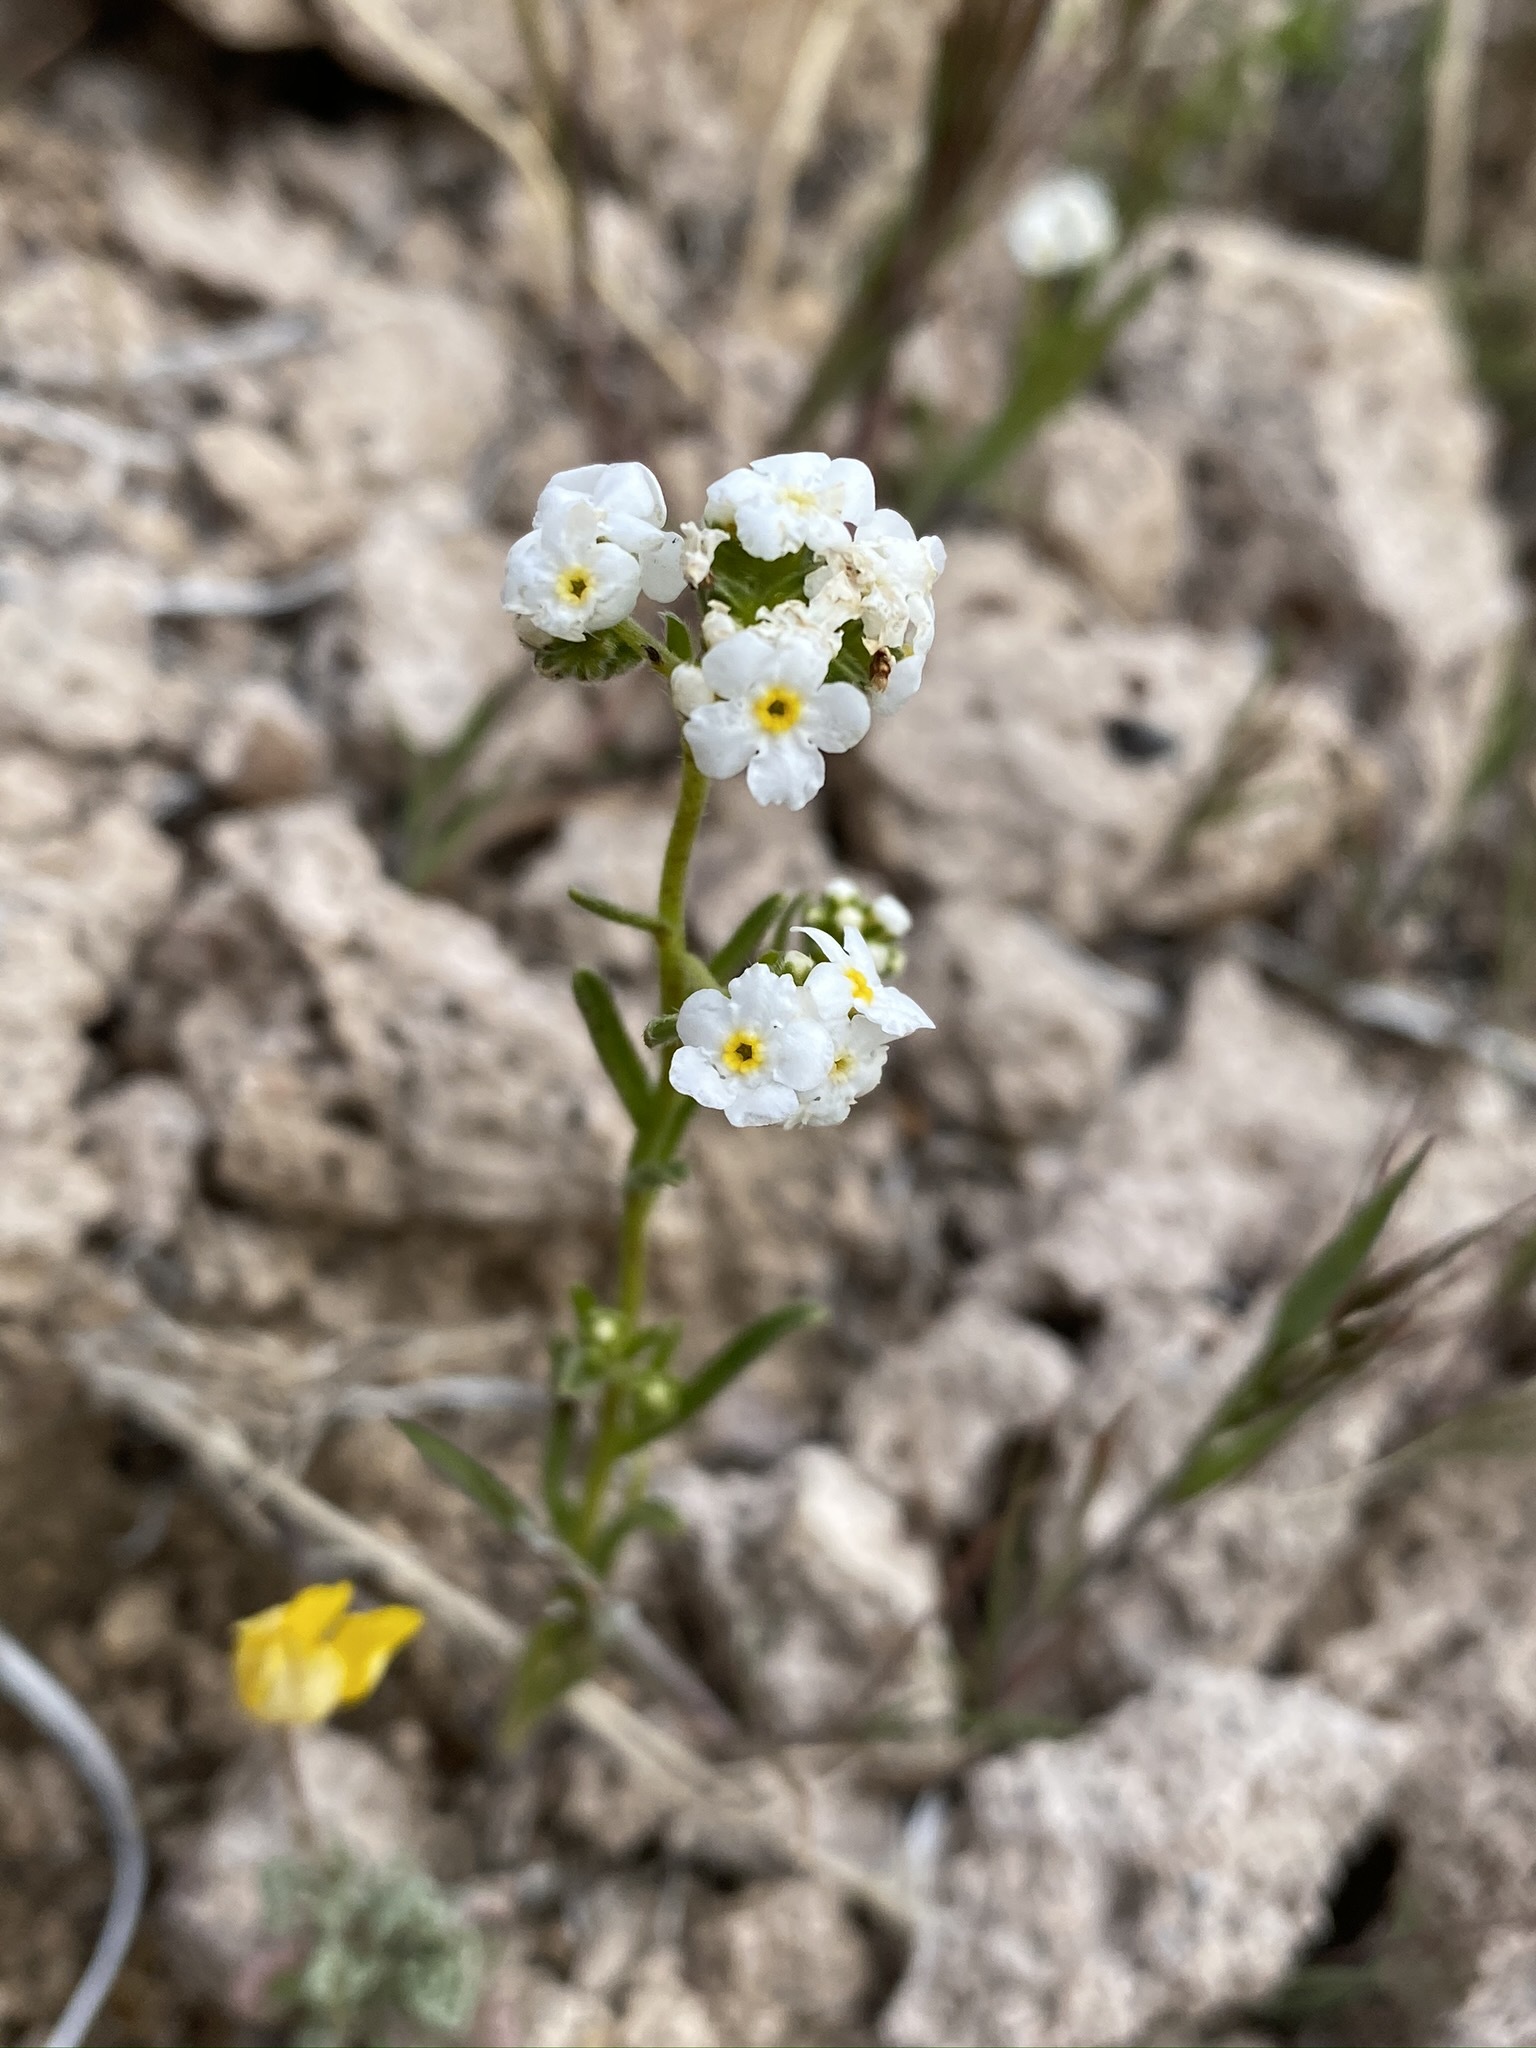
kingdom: Plantae
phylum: Tracheophyta
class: Magnoliopsida
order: Boraginales
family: Boraginaceae
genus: Cryptantha
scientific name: Cryptantha utahensis
